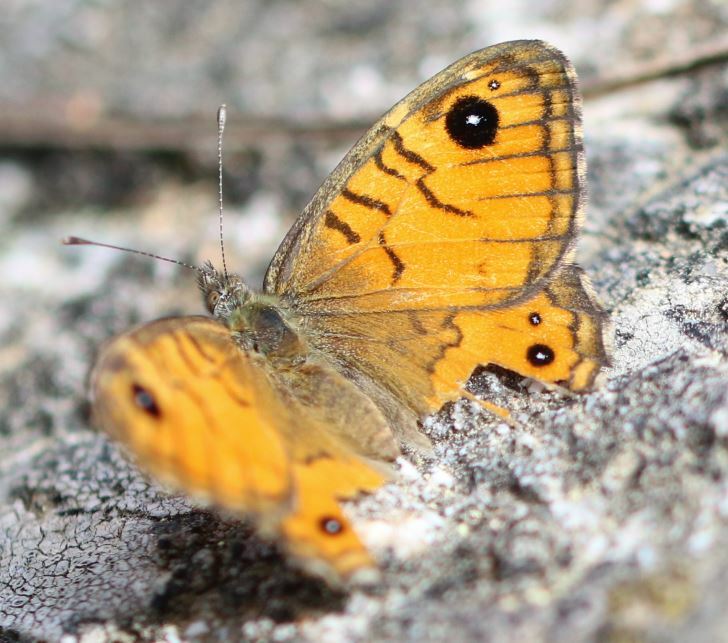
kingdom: Animalia
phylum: Arthropoda
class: Insecta
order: Lepidoptera
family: Nymphalidae
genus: Pararge
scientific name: Pararge Lasiommata paramegaera
